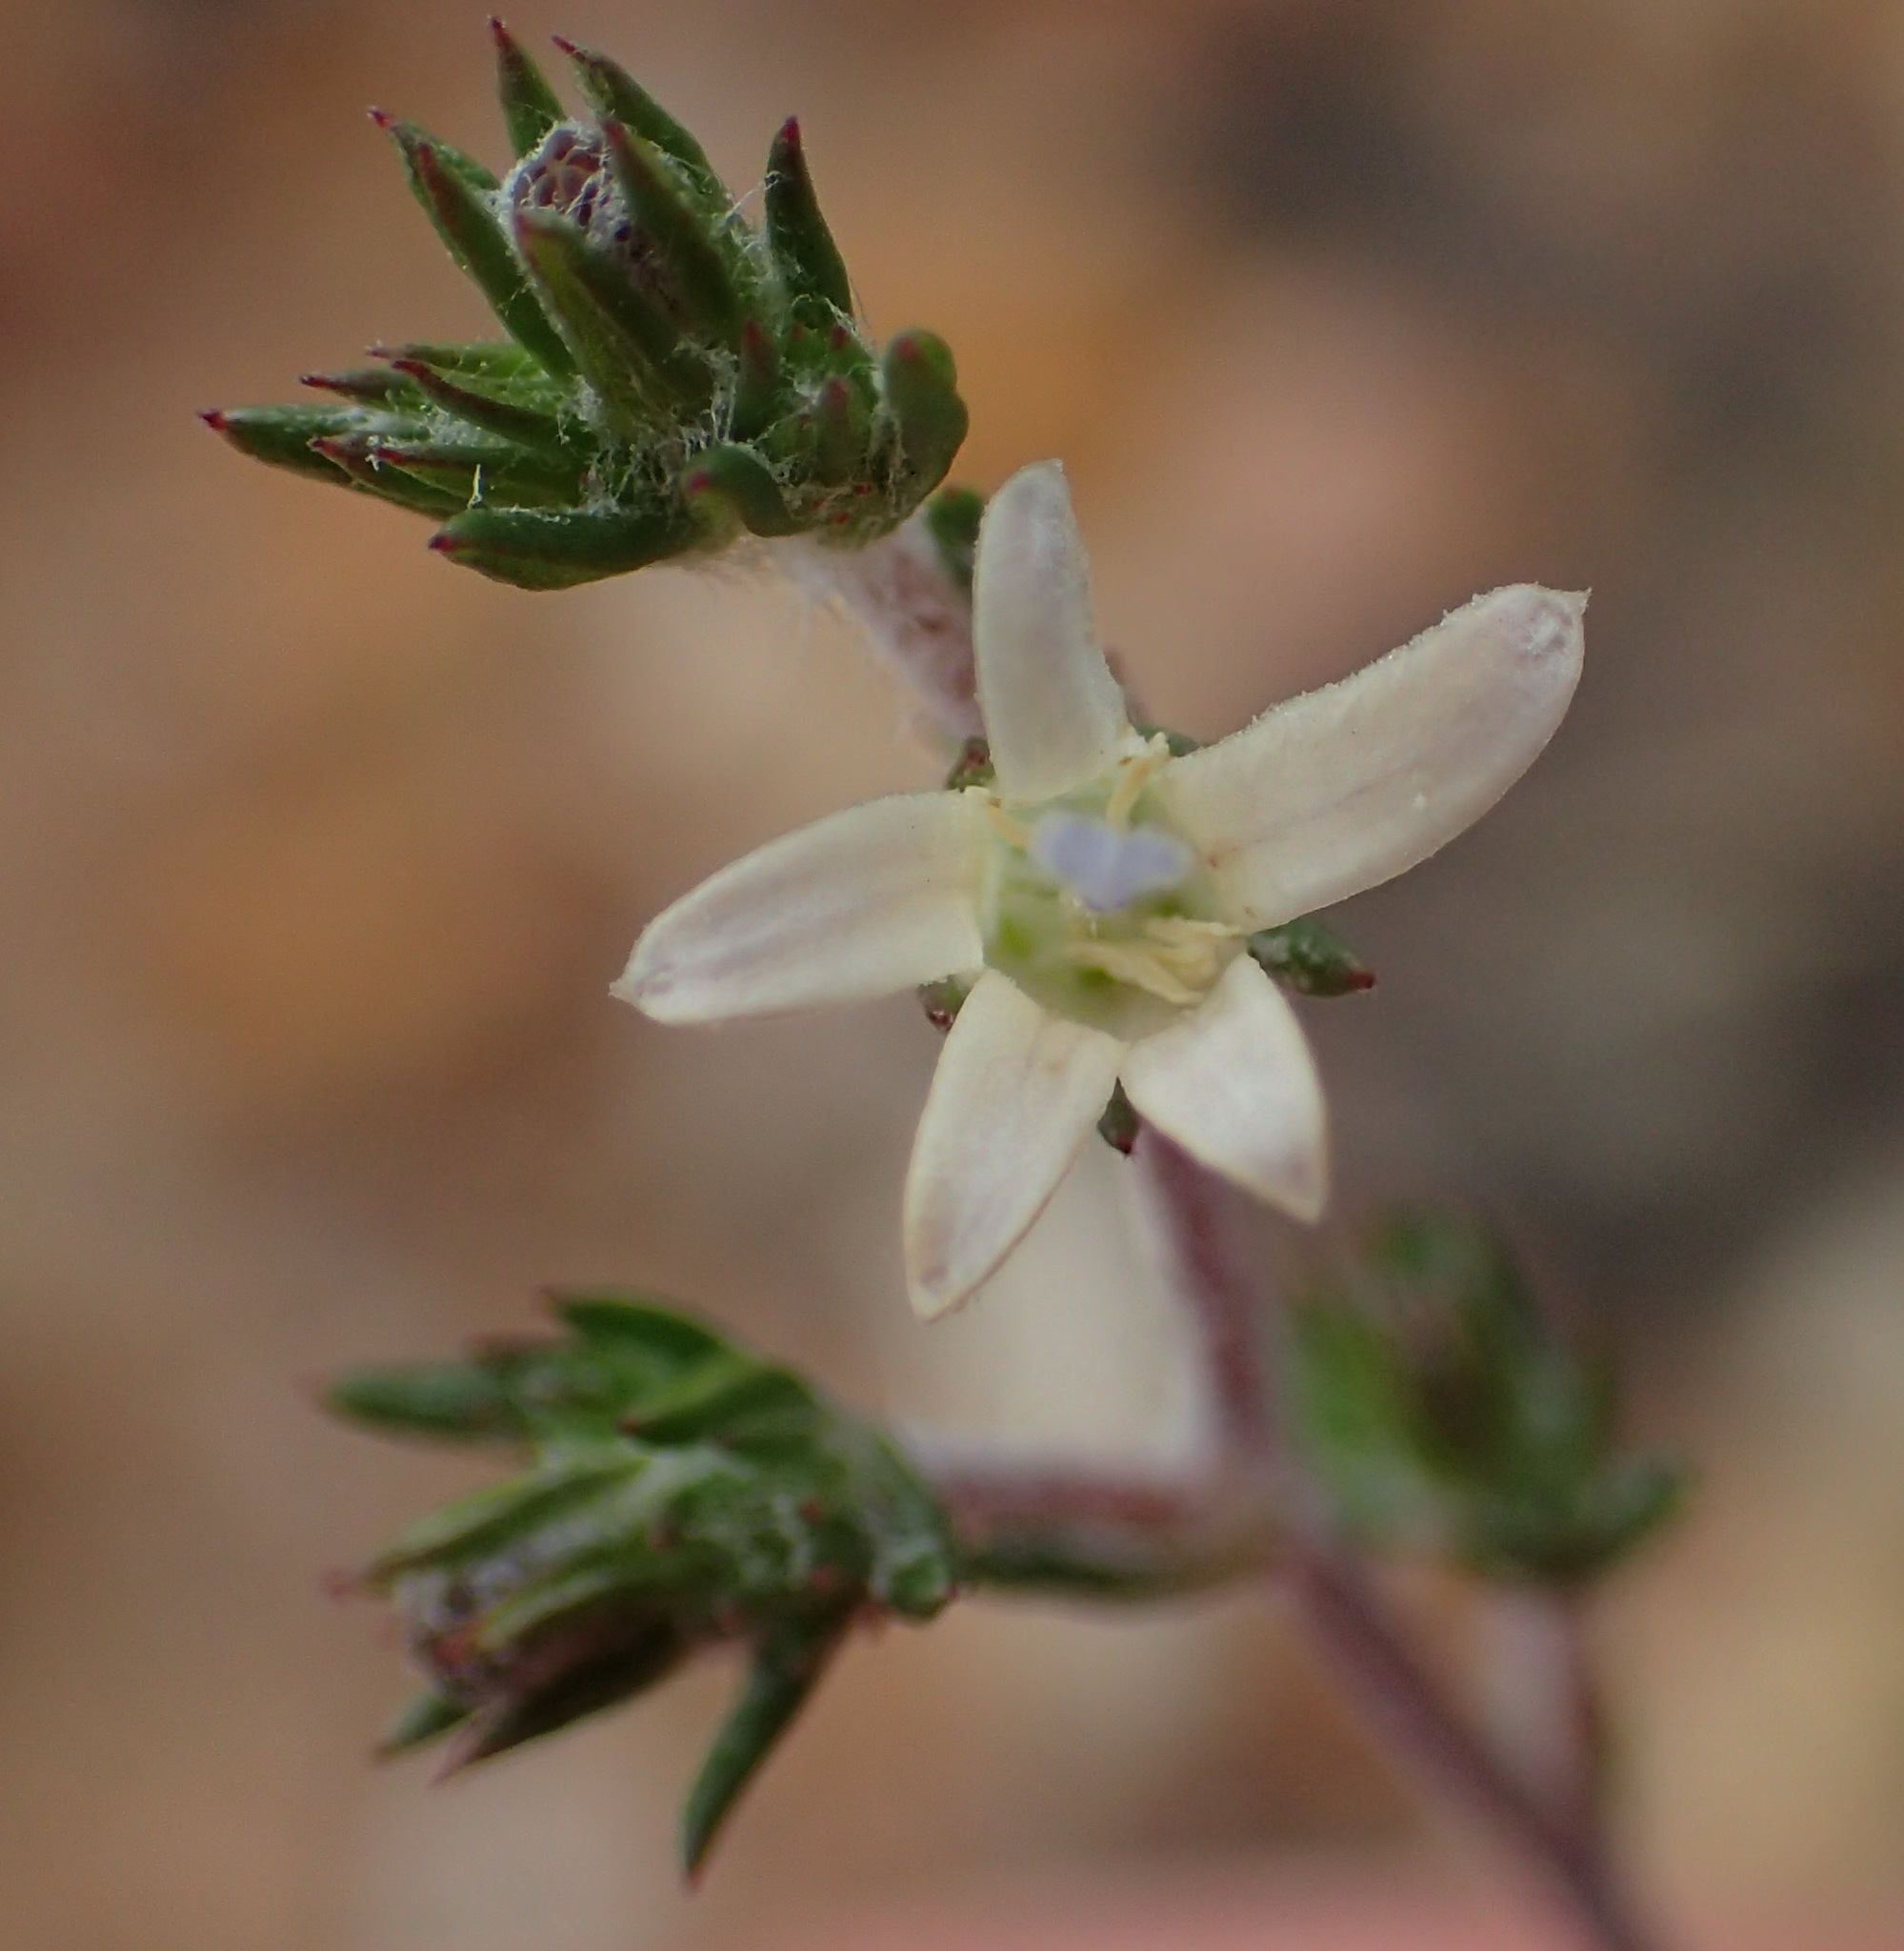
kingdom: Plantae
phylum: Tracheophyta
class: Magnoliopsida
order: Asterales
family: Campanulaceae
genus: Wahlenbergia
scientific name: Wahlenbergia cinerea
